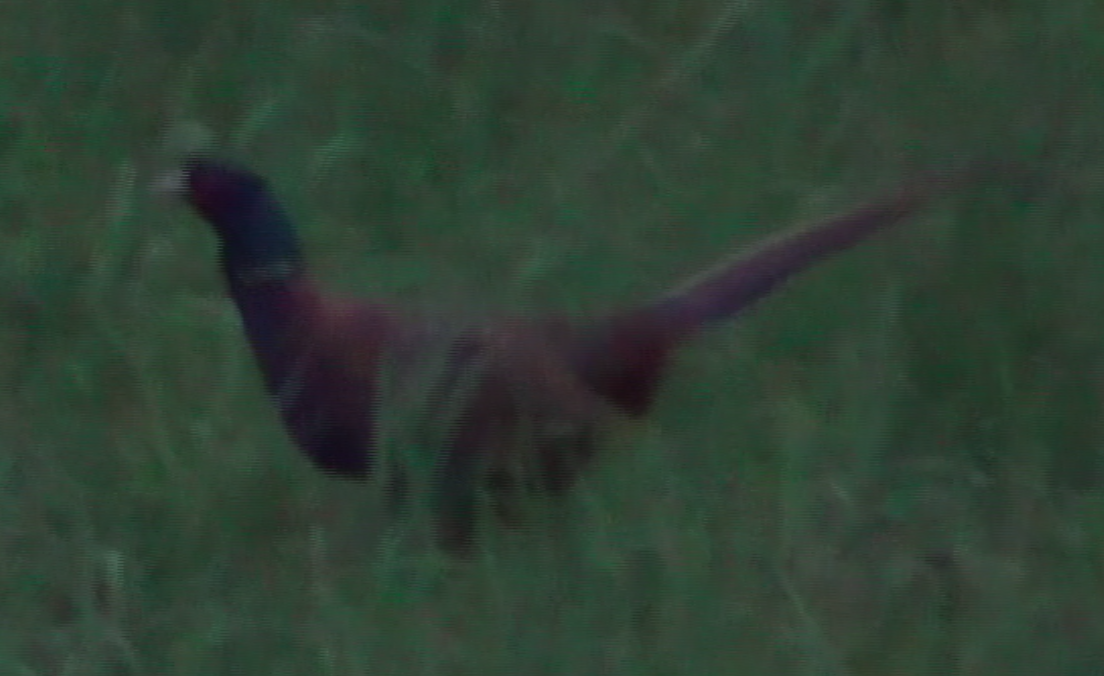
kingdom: Animalia
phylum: Chordata
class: Aves
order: Galliformes
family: Phasianidae
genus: Phasianus
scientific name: Phasianus colchicus
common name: Common pheasant
